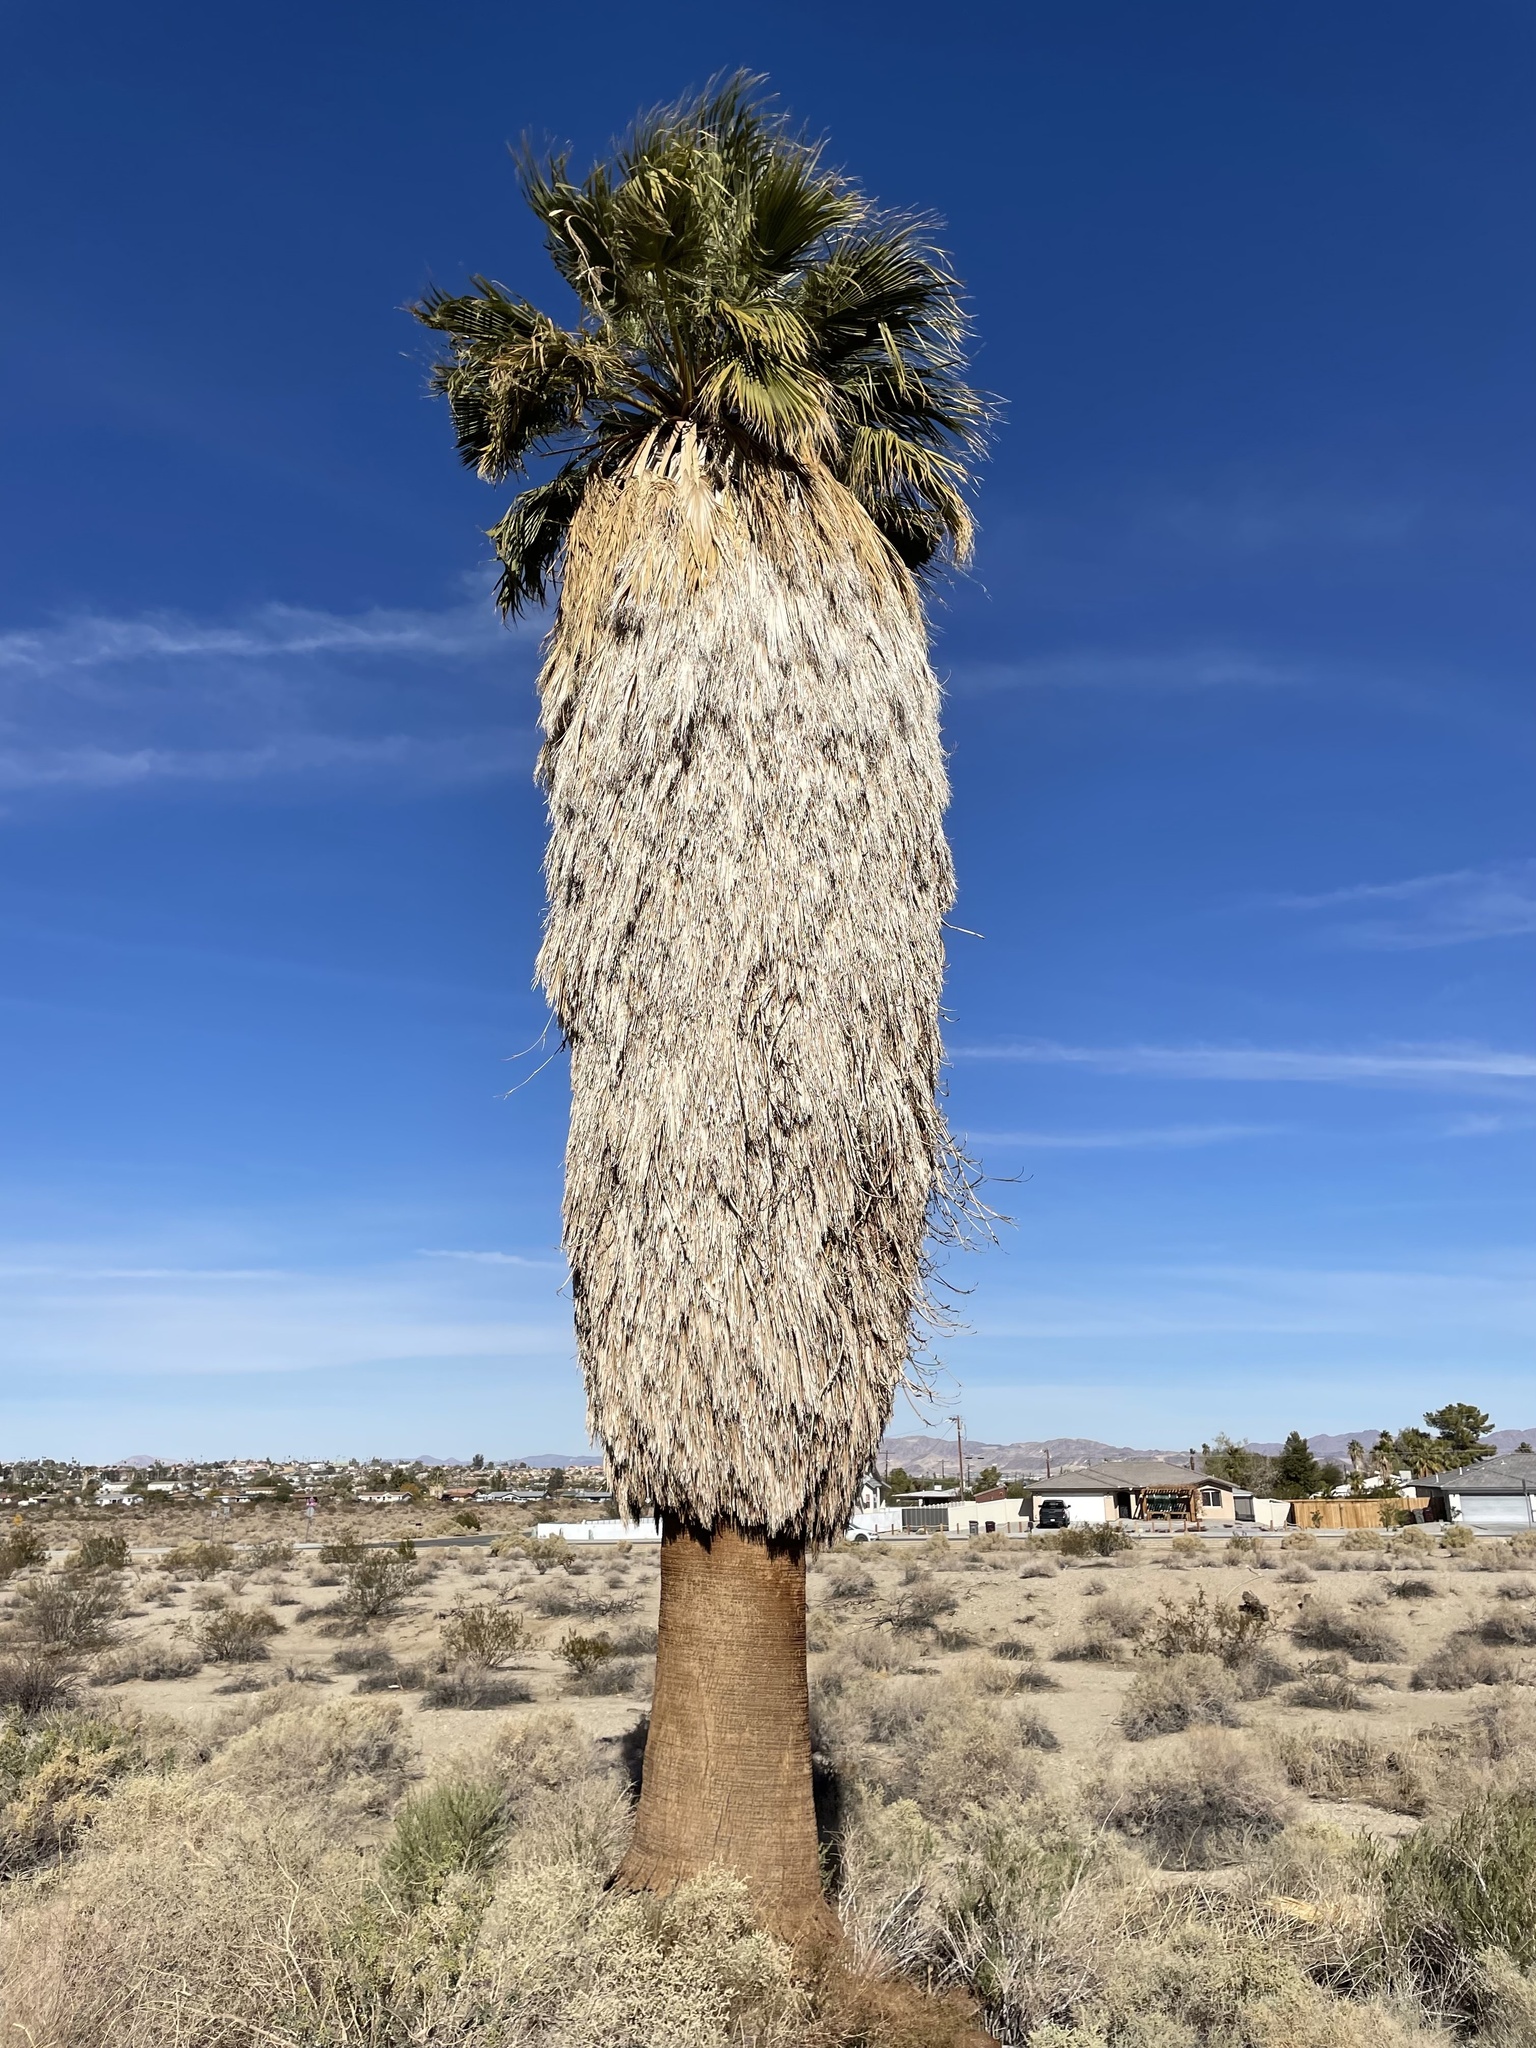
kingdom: Plantae
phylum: Tracheophyta
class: Liliopsida
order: Arecales
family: Arecaceae
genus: Washingtonia
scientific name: Washingtonia filifera
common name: California fan palm
